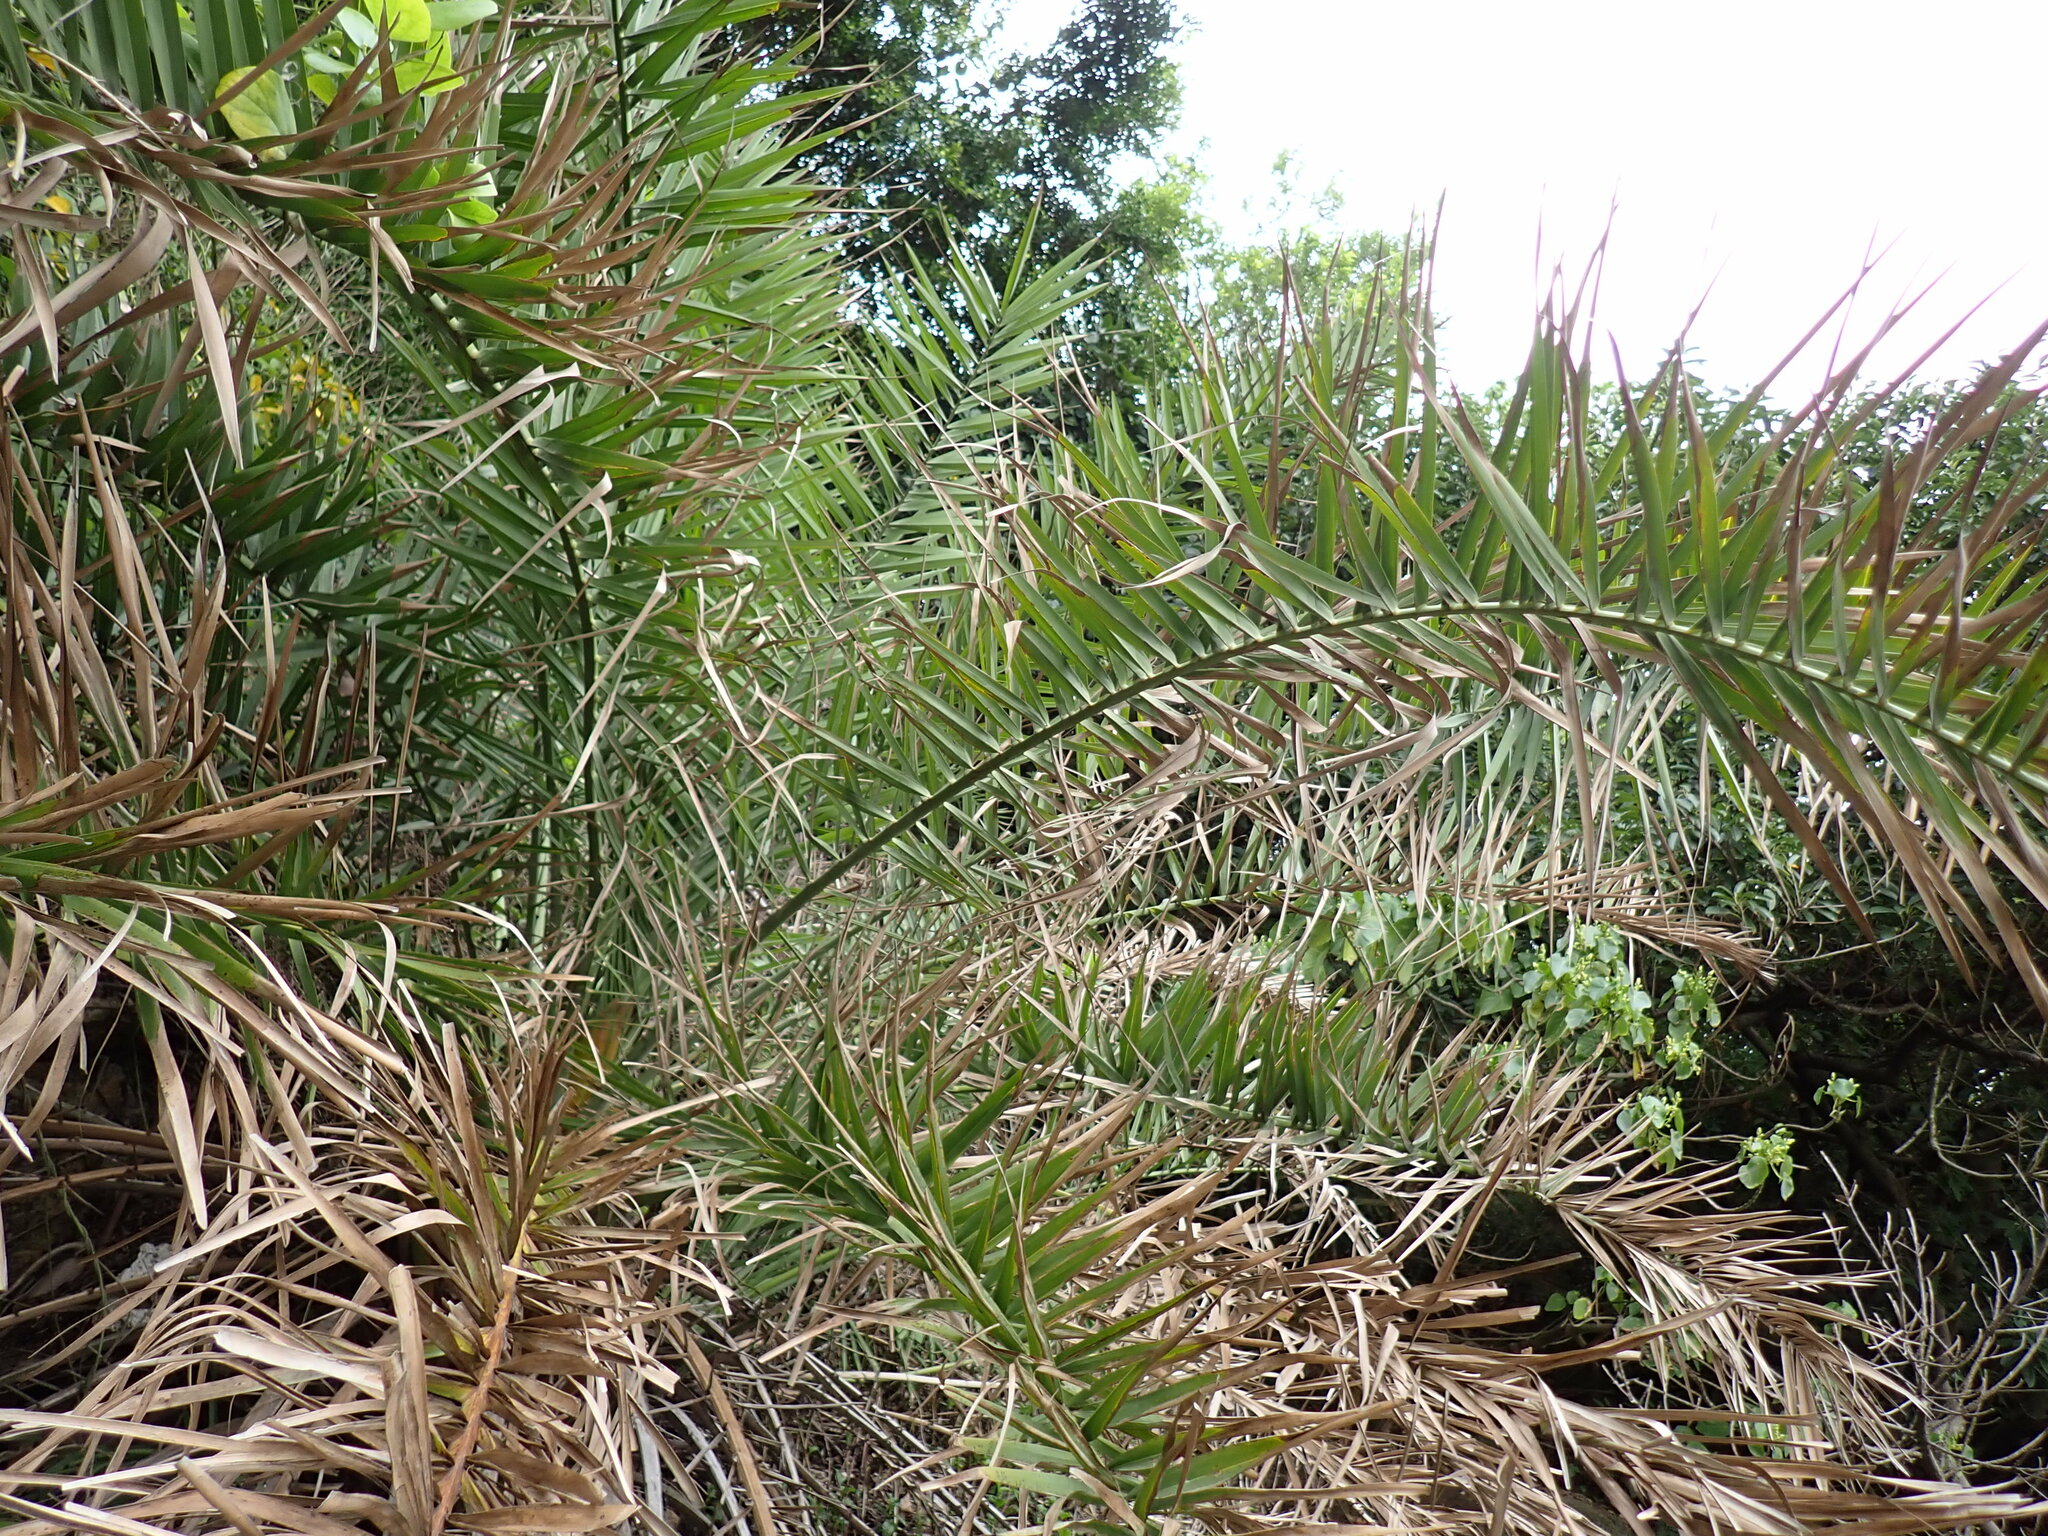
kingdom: Plantae
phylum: Tracheophyta
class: Liliopsida
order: Arecales
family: Arecaceae
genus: Phoenix
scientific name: Phoenix loureiroi
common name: Loureiro's palm
